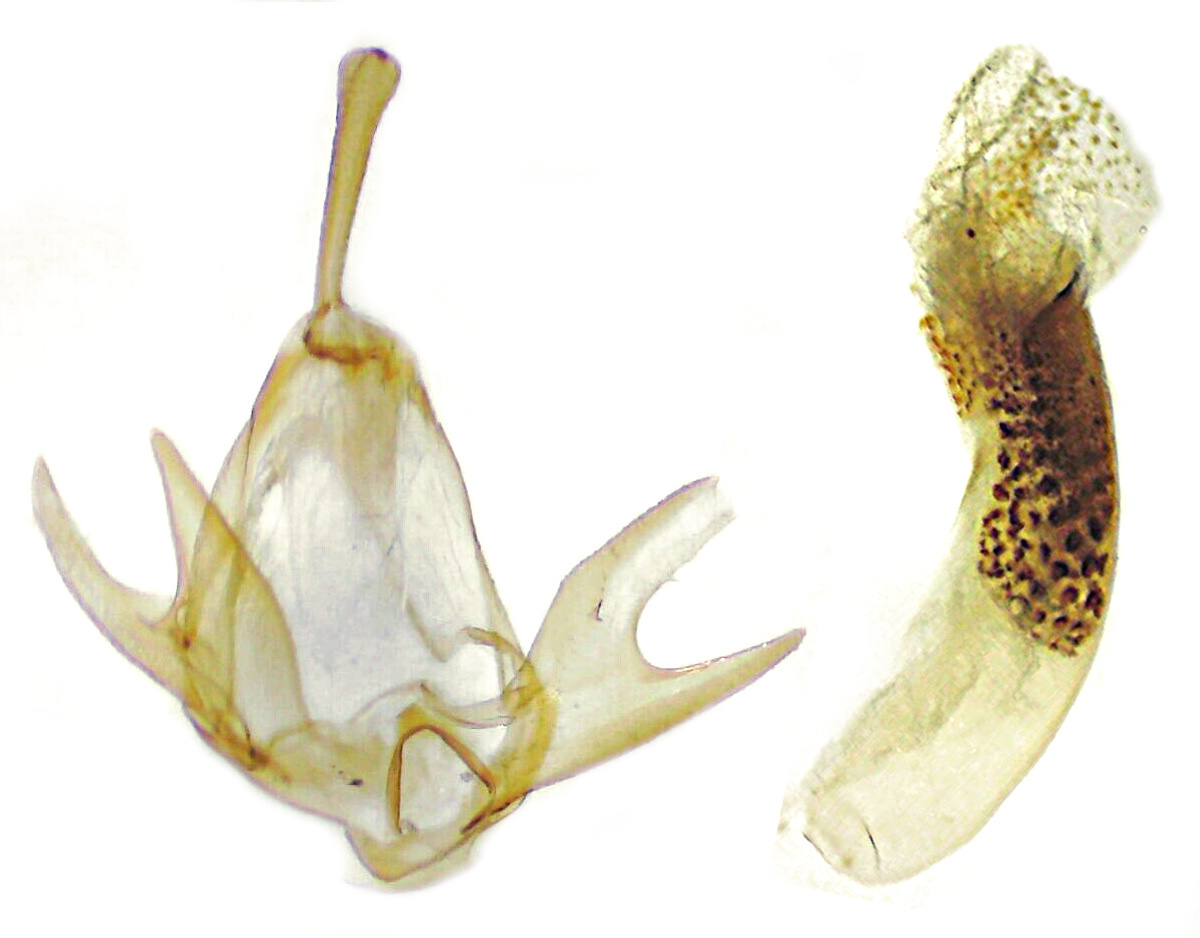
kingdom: Animalia
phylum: Arthropoda
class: Insecta
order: Lepidoptera
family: Erebidae
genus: Zanclognatha
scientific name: Zanclognatha jacchusalis
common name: Yellowish zanclognatha
